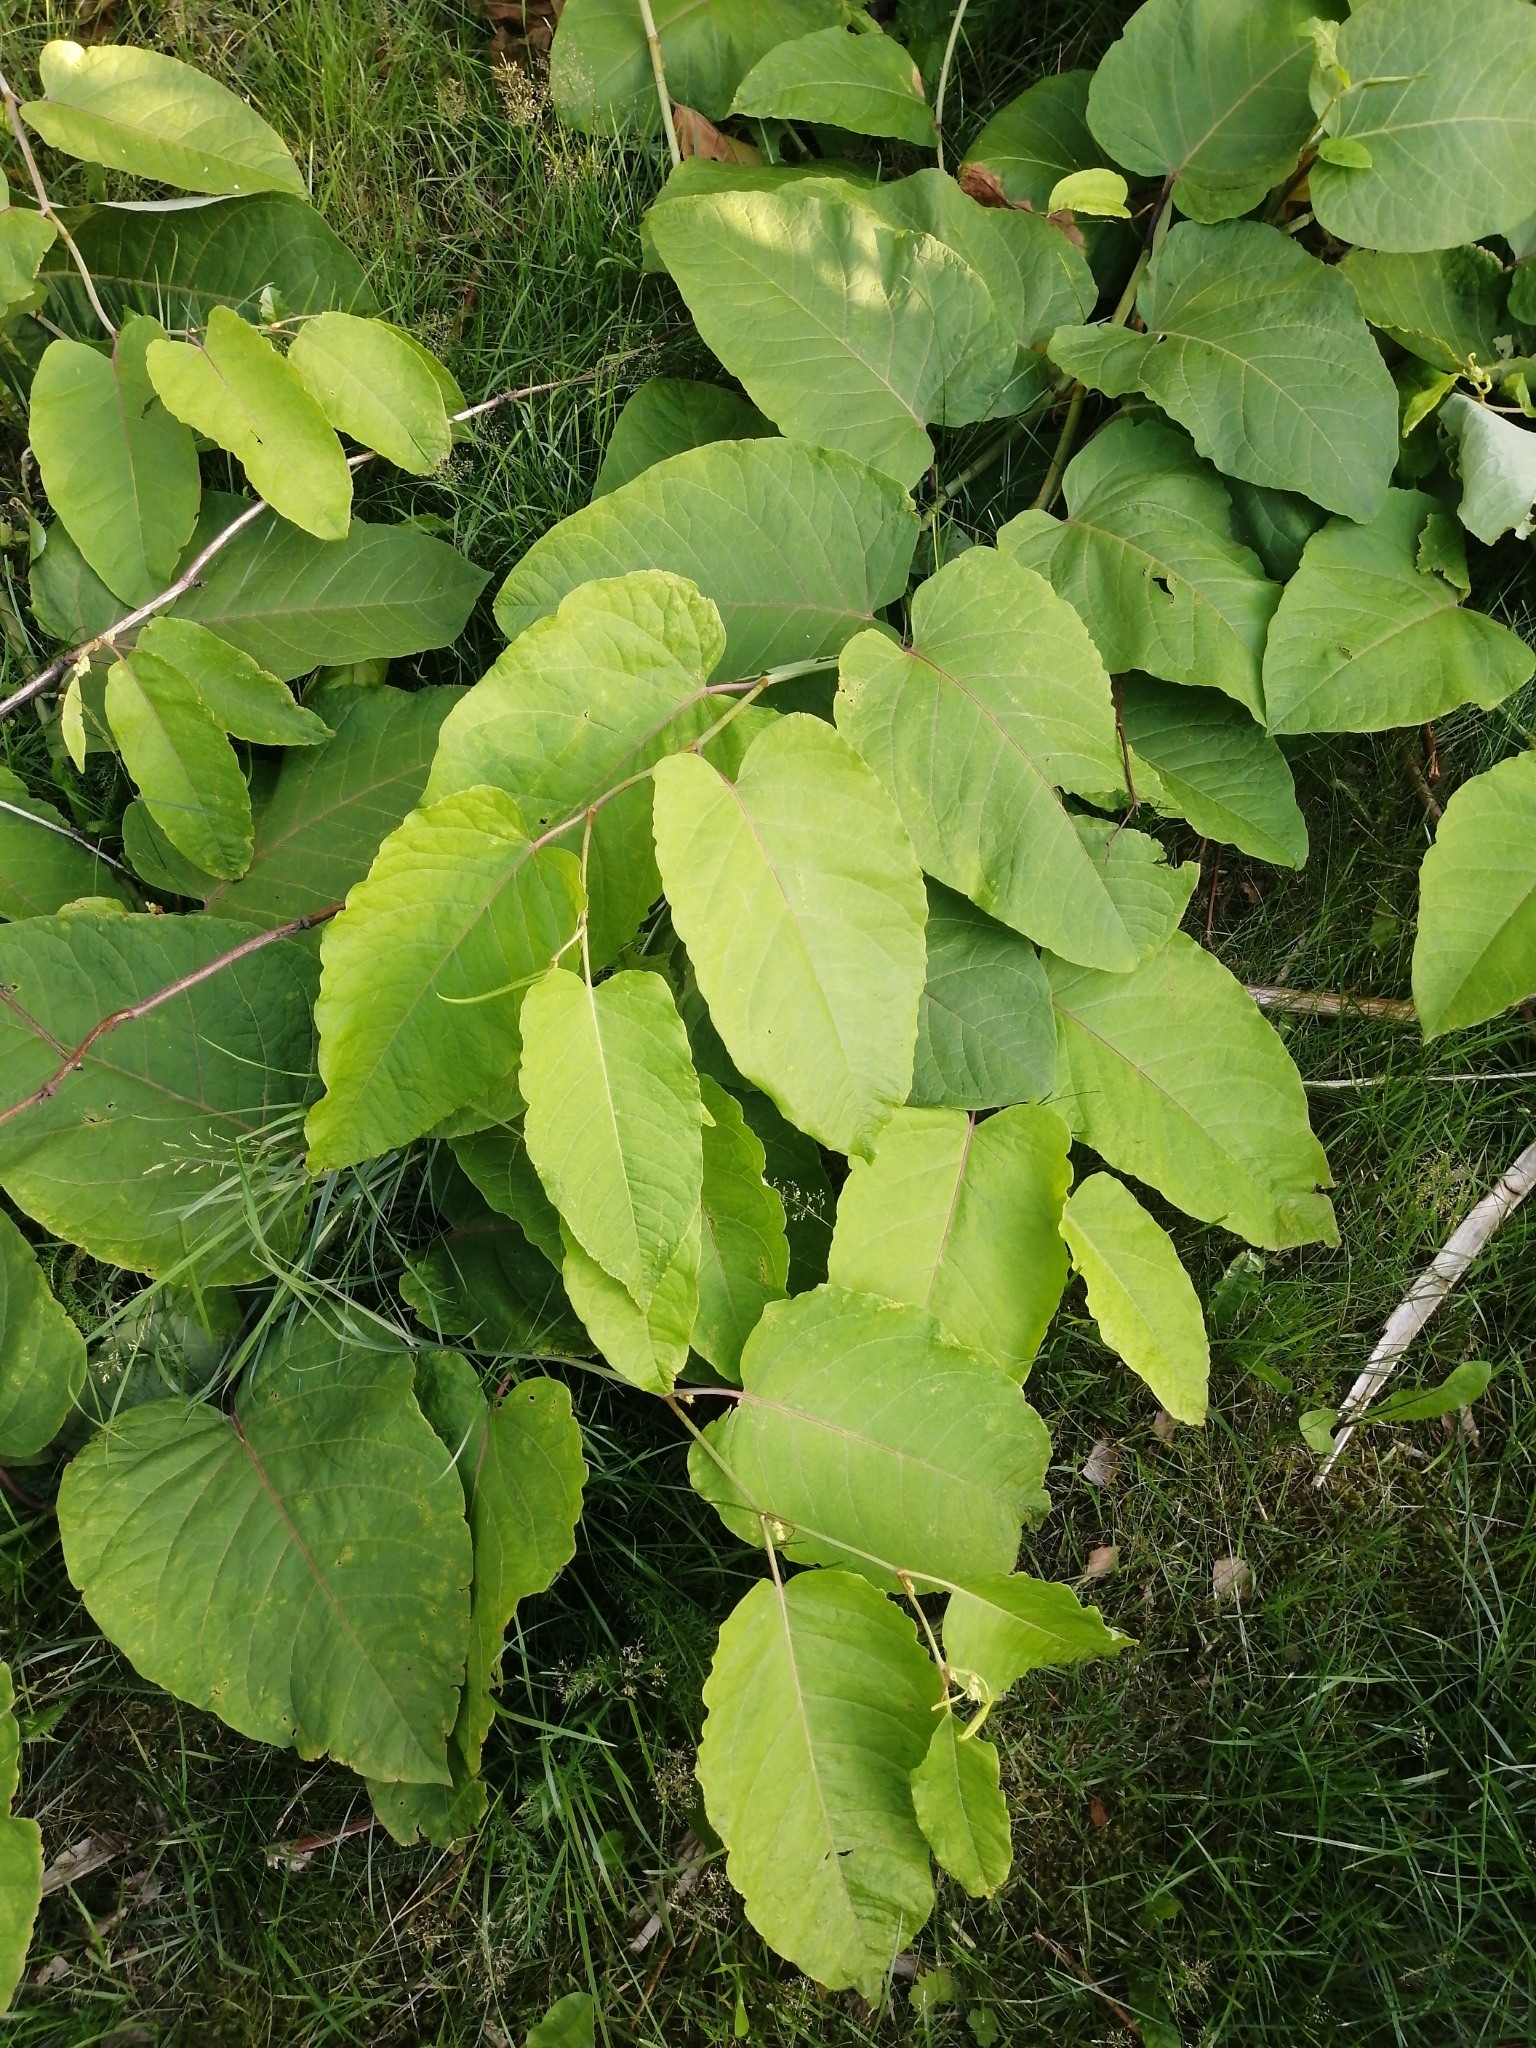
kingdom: Plantae
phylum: Tracheophyta
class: Magnoliopsida
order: Caryophyllales
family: Polygonaceae
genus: Reynoutria
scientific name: Reynoutria sachalinensis
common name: Giant knotweed
